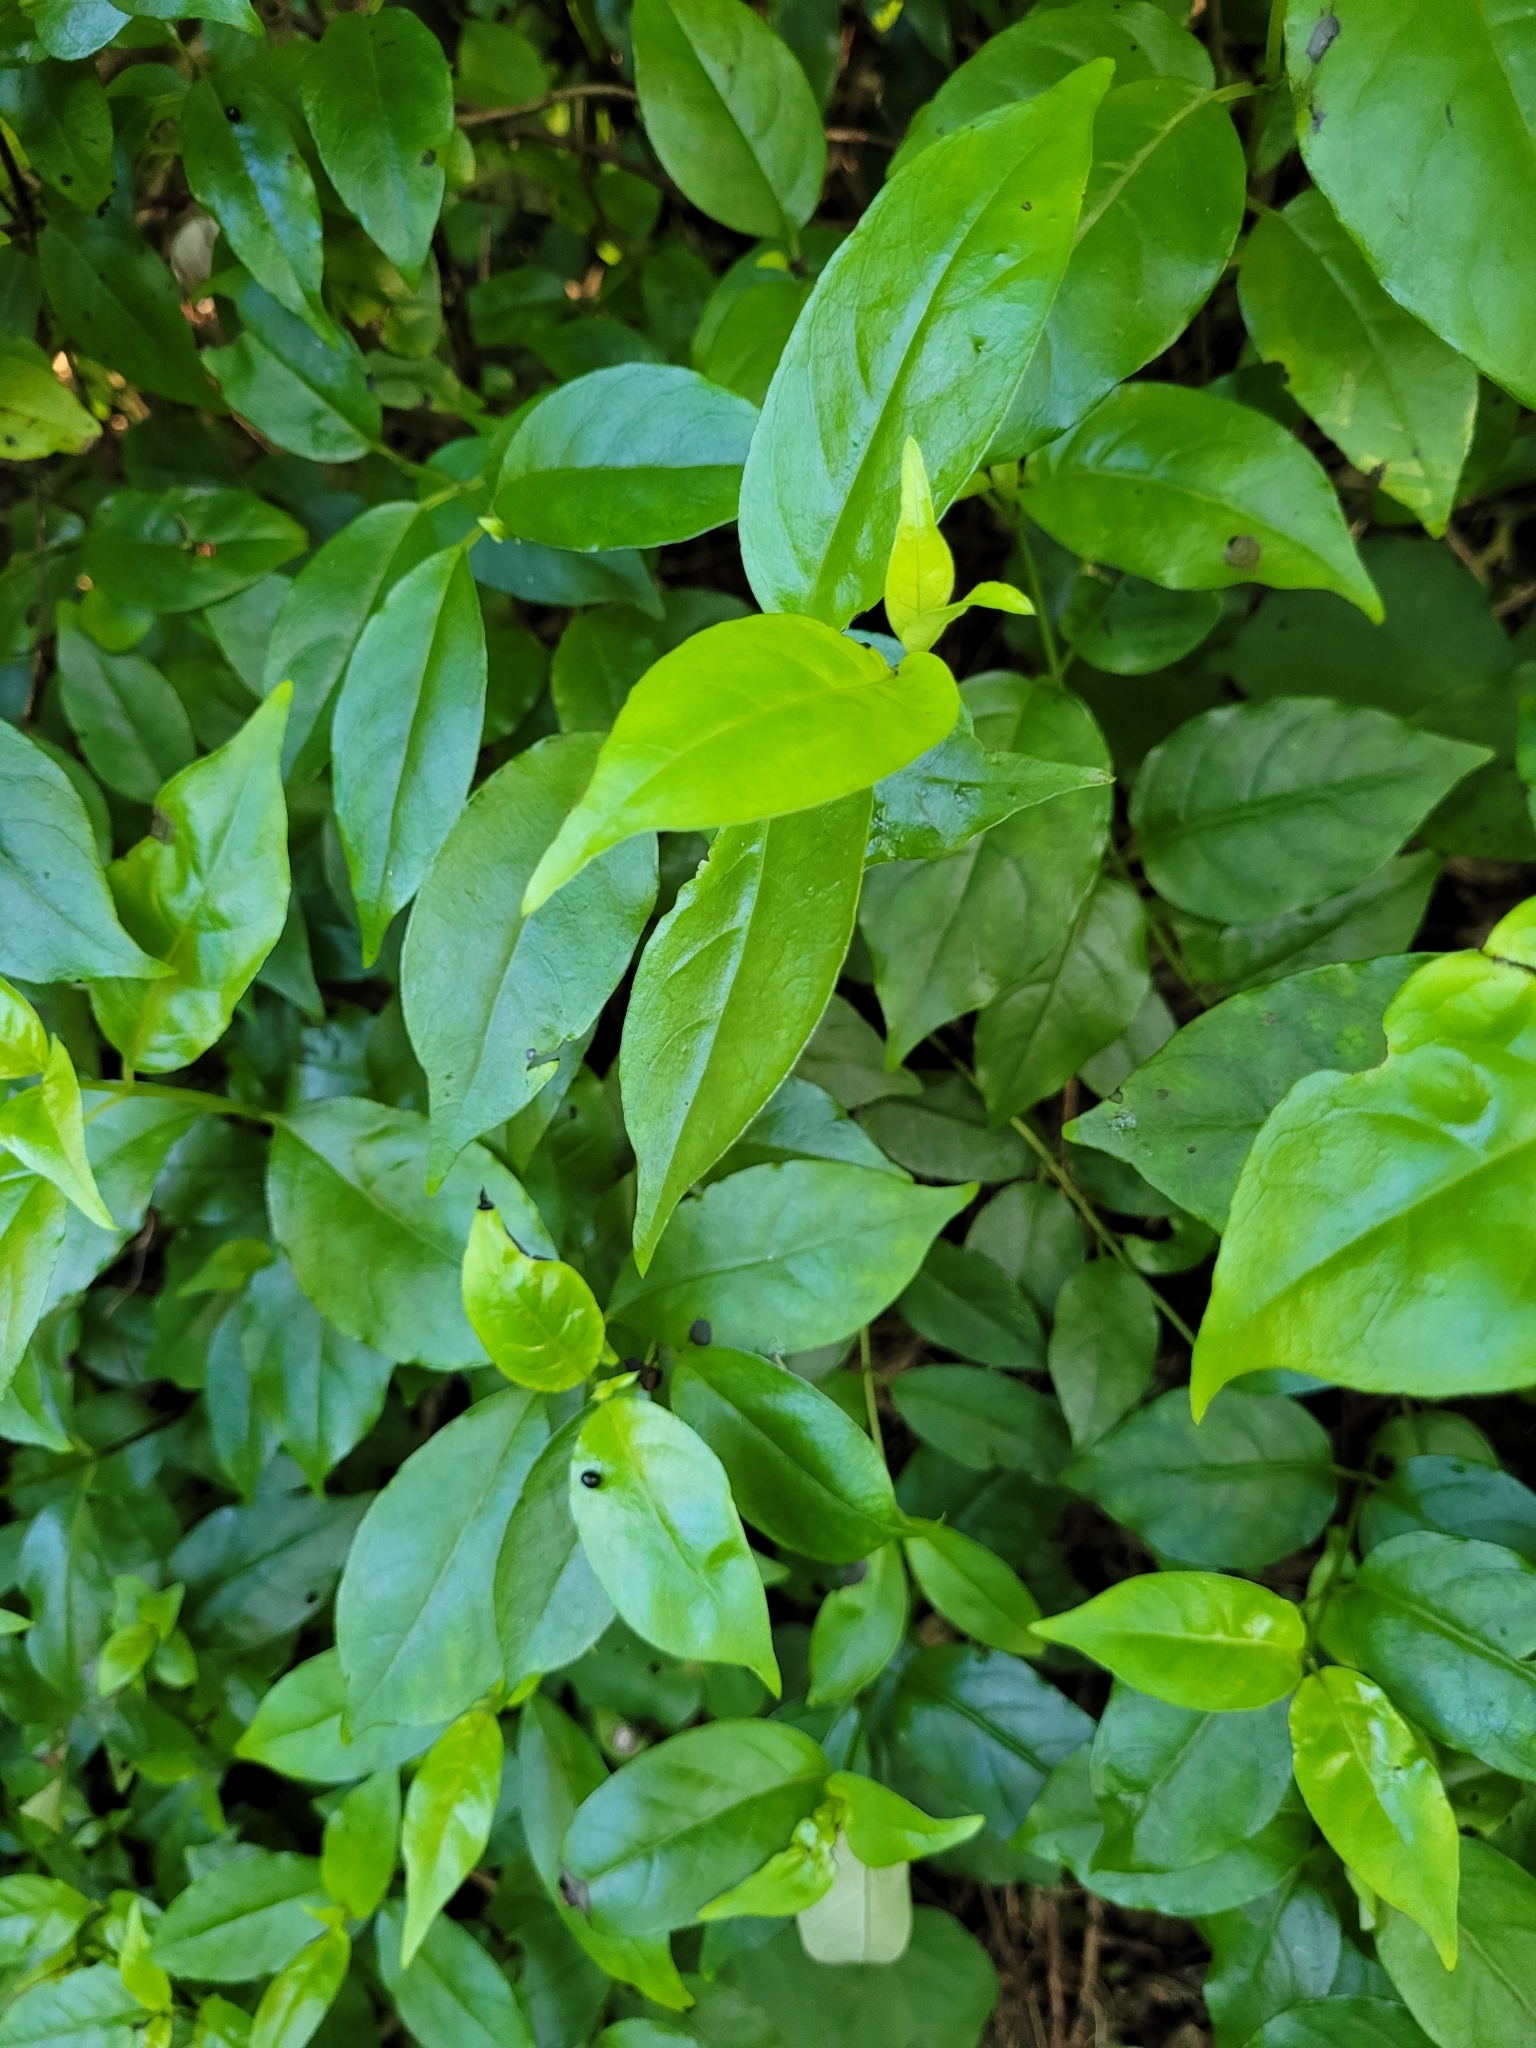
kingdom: Plantae
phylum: Tracheophyta
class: Magnoliopsida
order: Gentianales
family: Loganiaceae
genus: Geniostoma
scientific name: Geniostoma ligustrifolium
